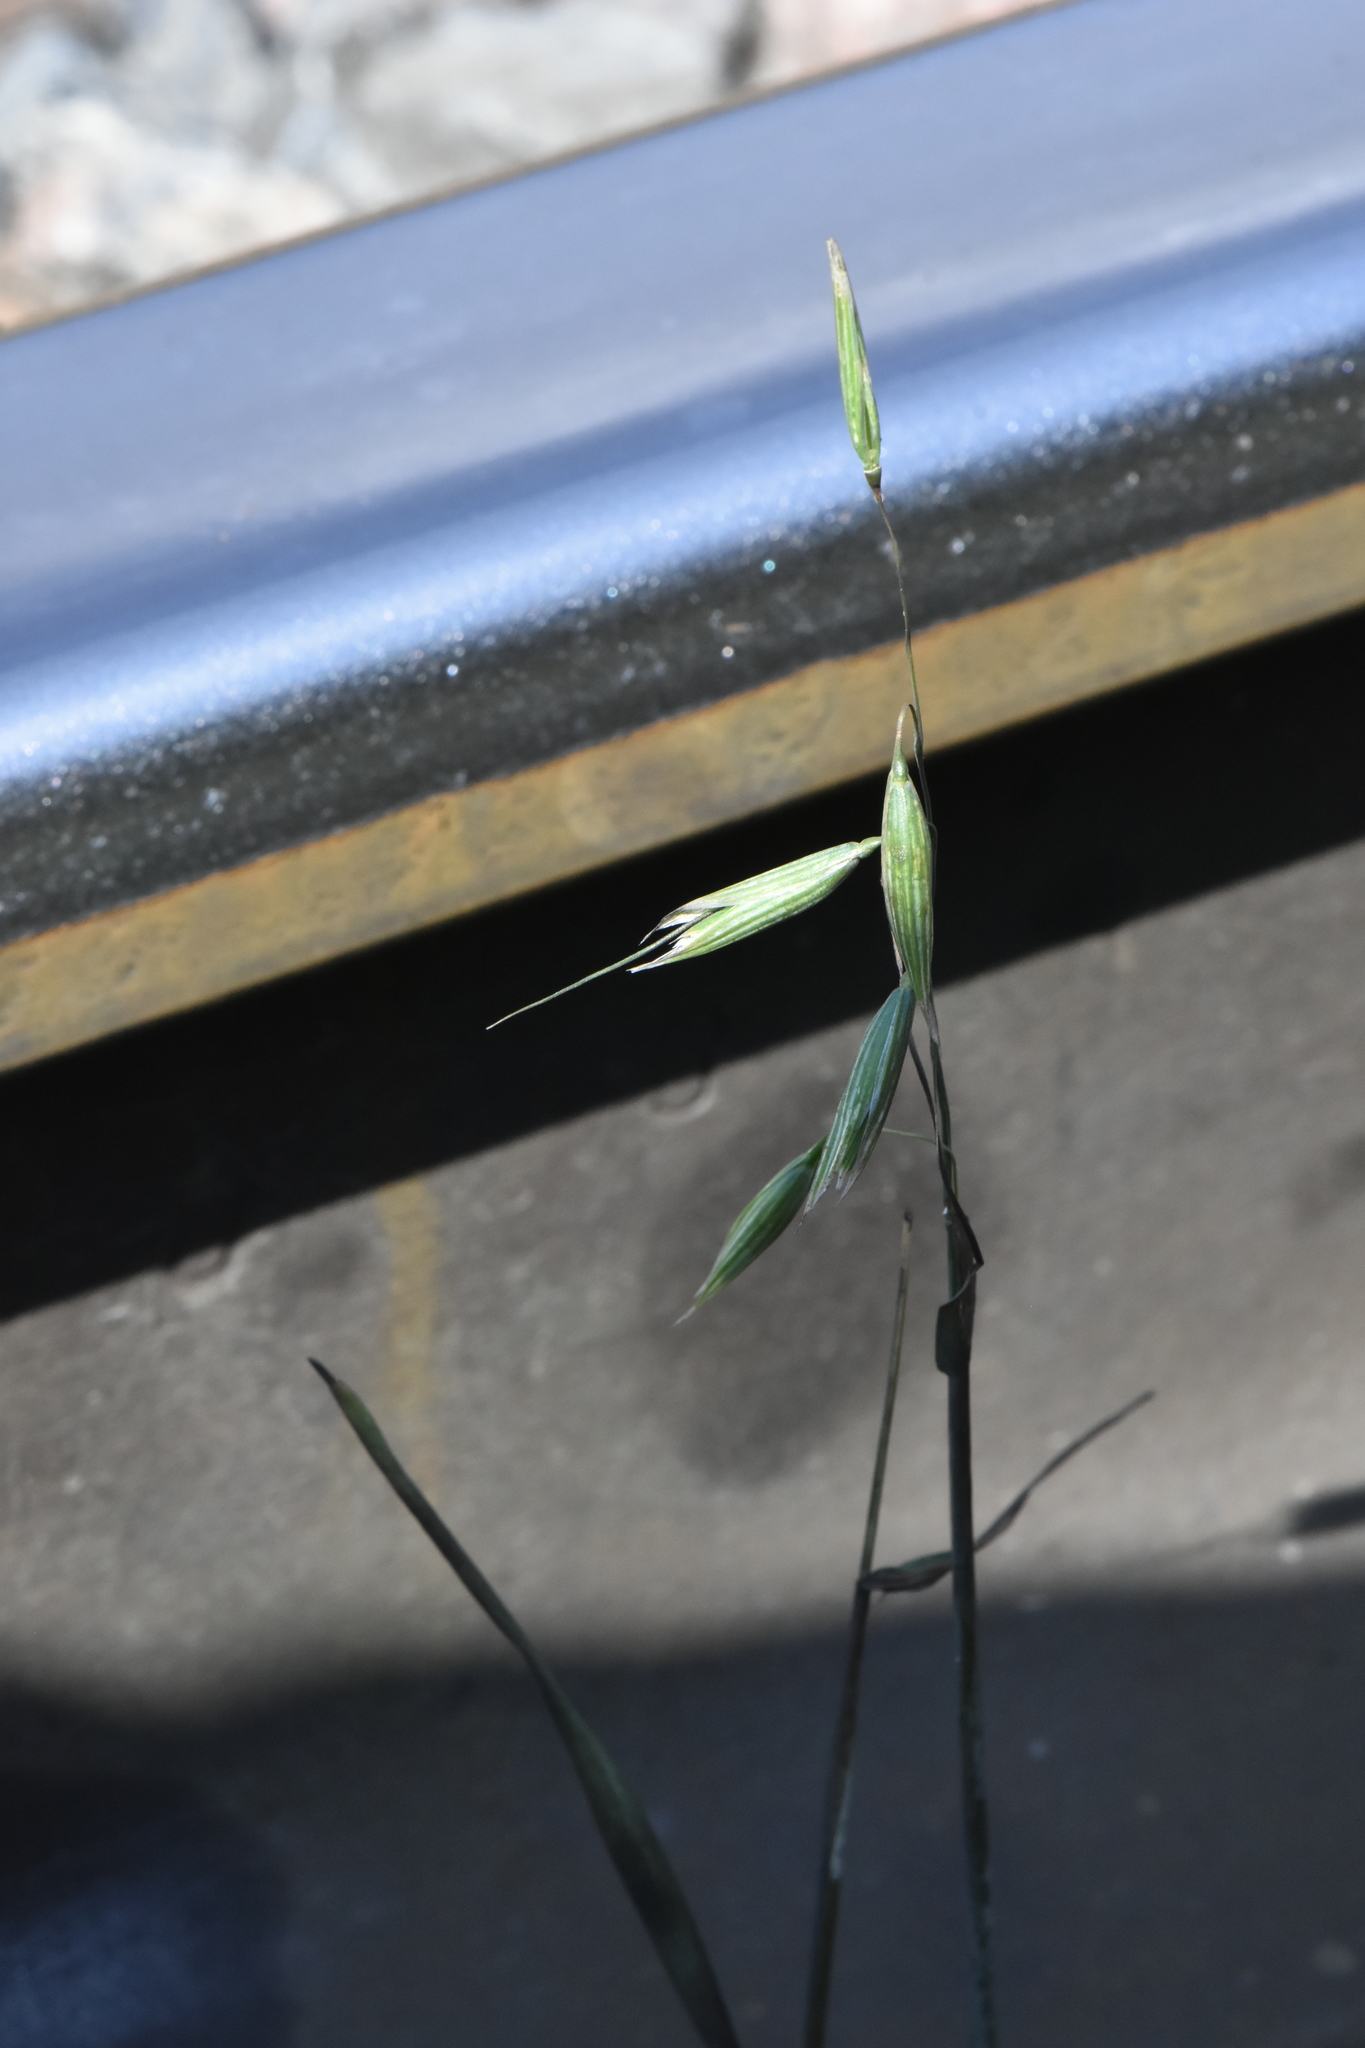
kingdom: Plantae
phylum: Tracheophyta
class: Liliopsida
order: Poales
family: Poaceae
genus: Avena
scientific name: Avena sativa
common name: Oat
